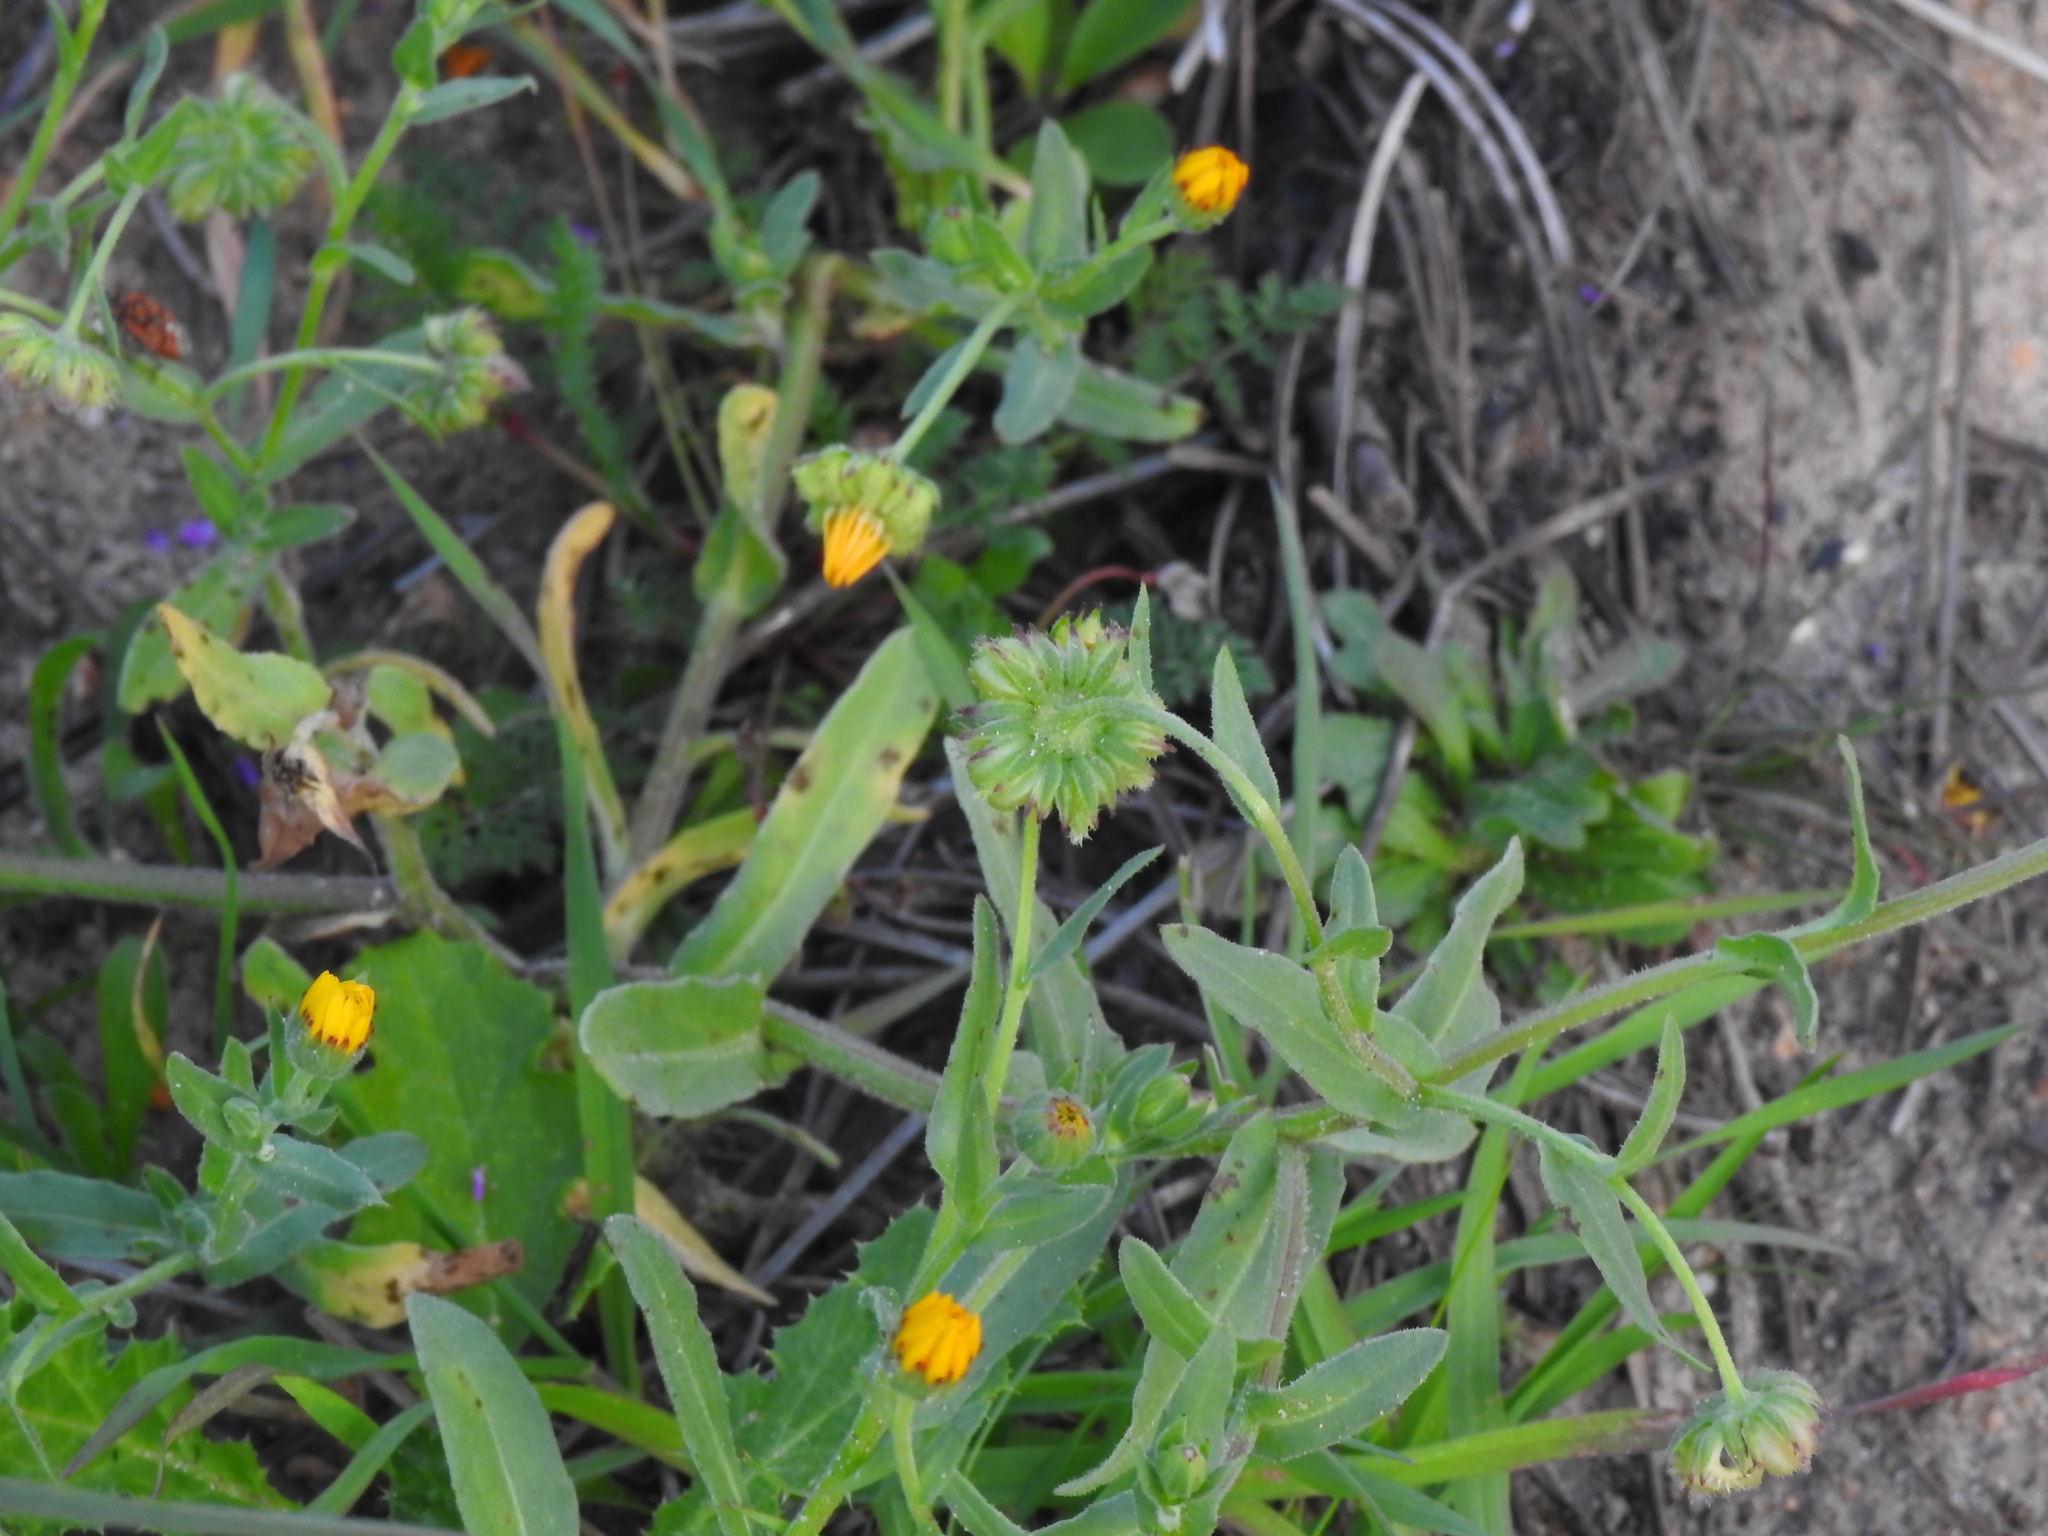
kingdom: Plantae
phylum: Tracheophyta
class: Magnoliopsida
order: Asterales
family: Asteraceae
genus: Calendula
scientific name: Calendula arvensis
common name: Field marigold
